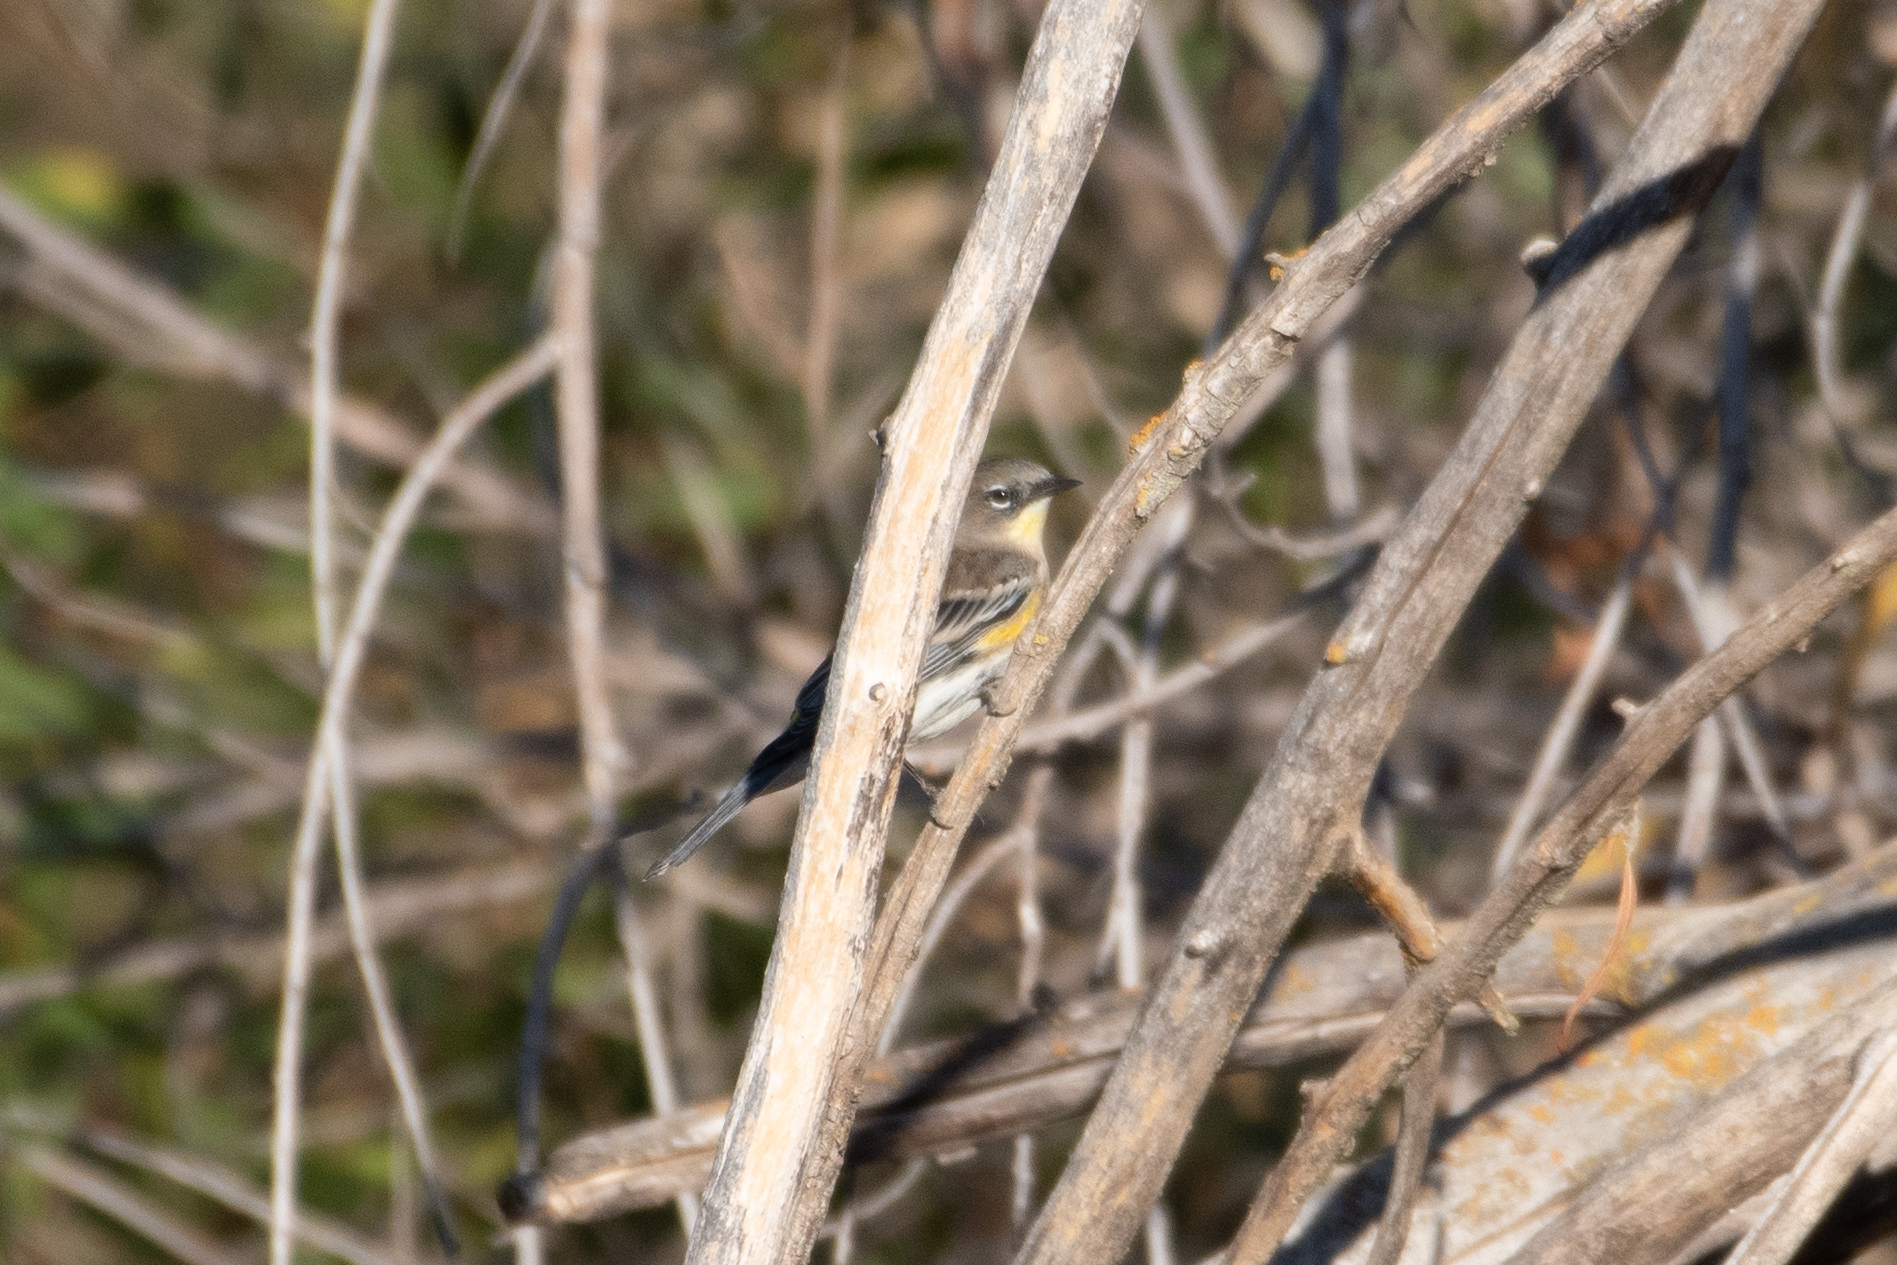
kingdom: Animalia
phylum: Chordata
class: Aves
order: Passeriformes
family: Parulidae
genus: Setophaga
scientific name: Setophaga coronata
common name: Myrtle warbler
